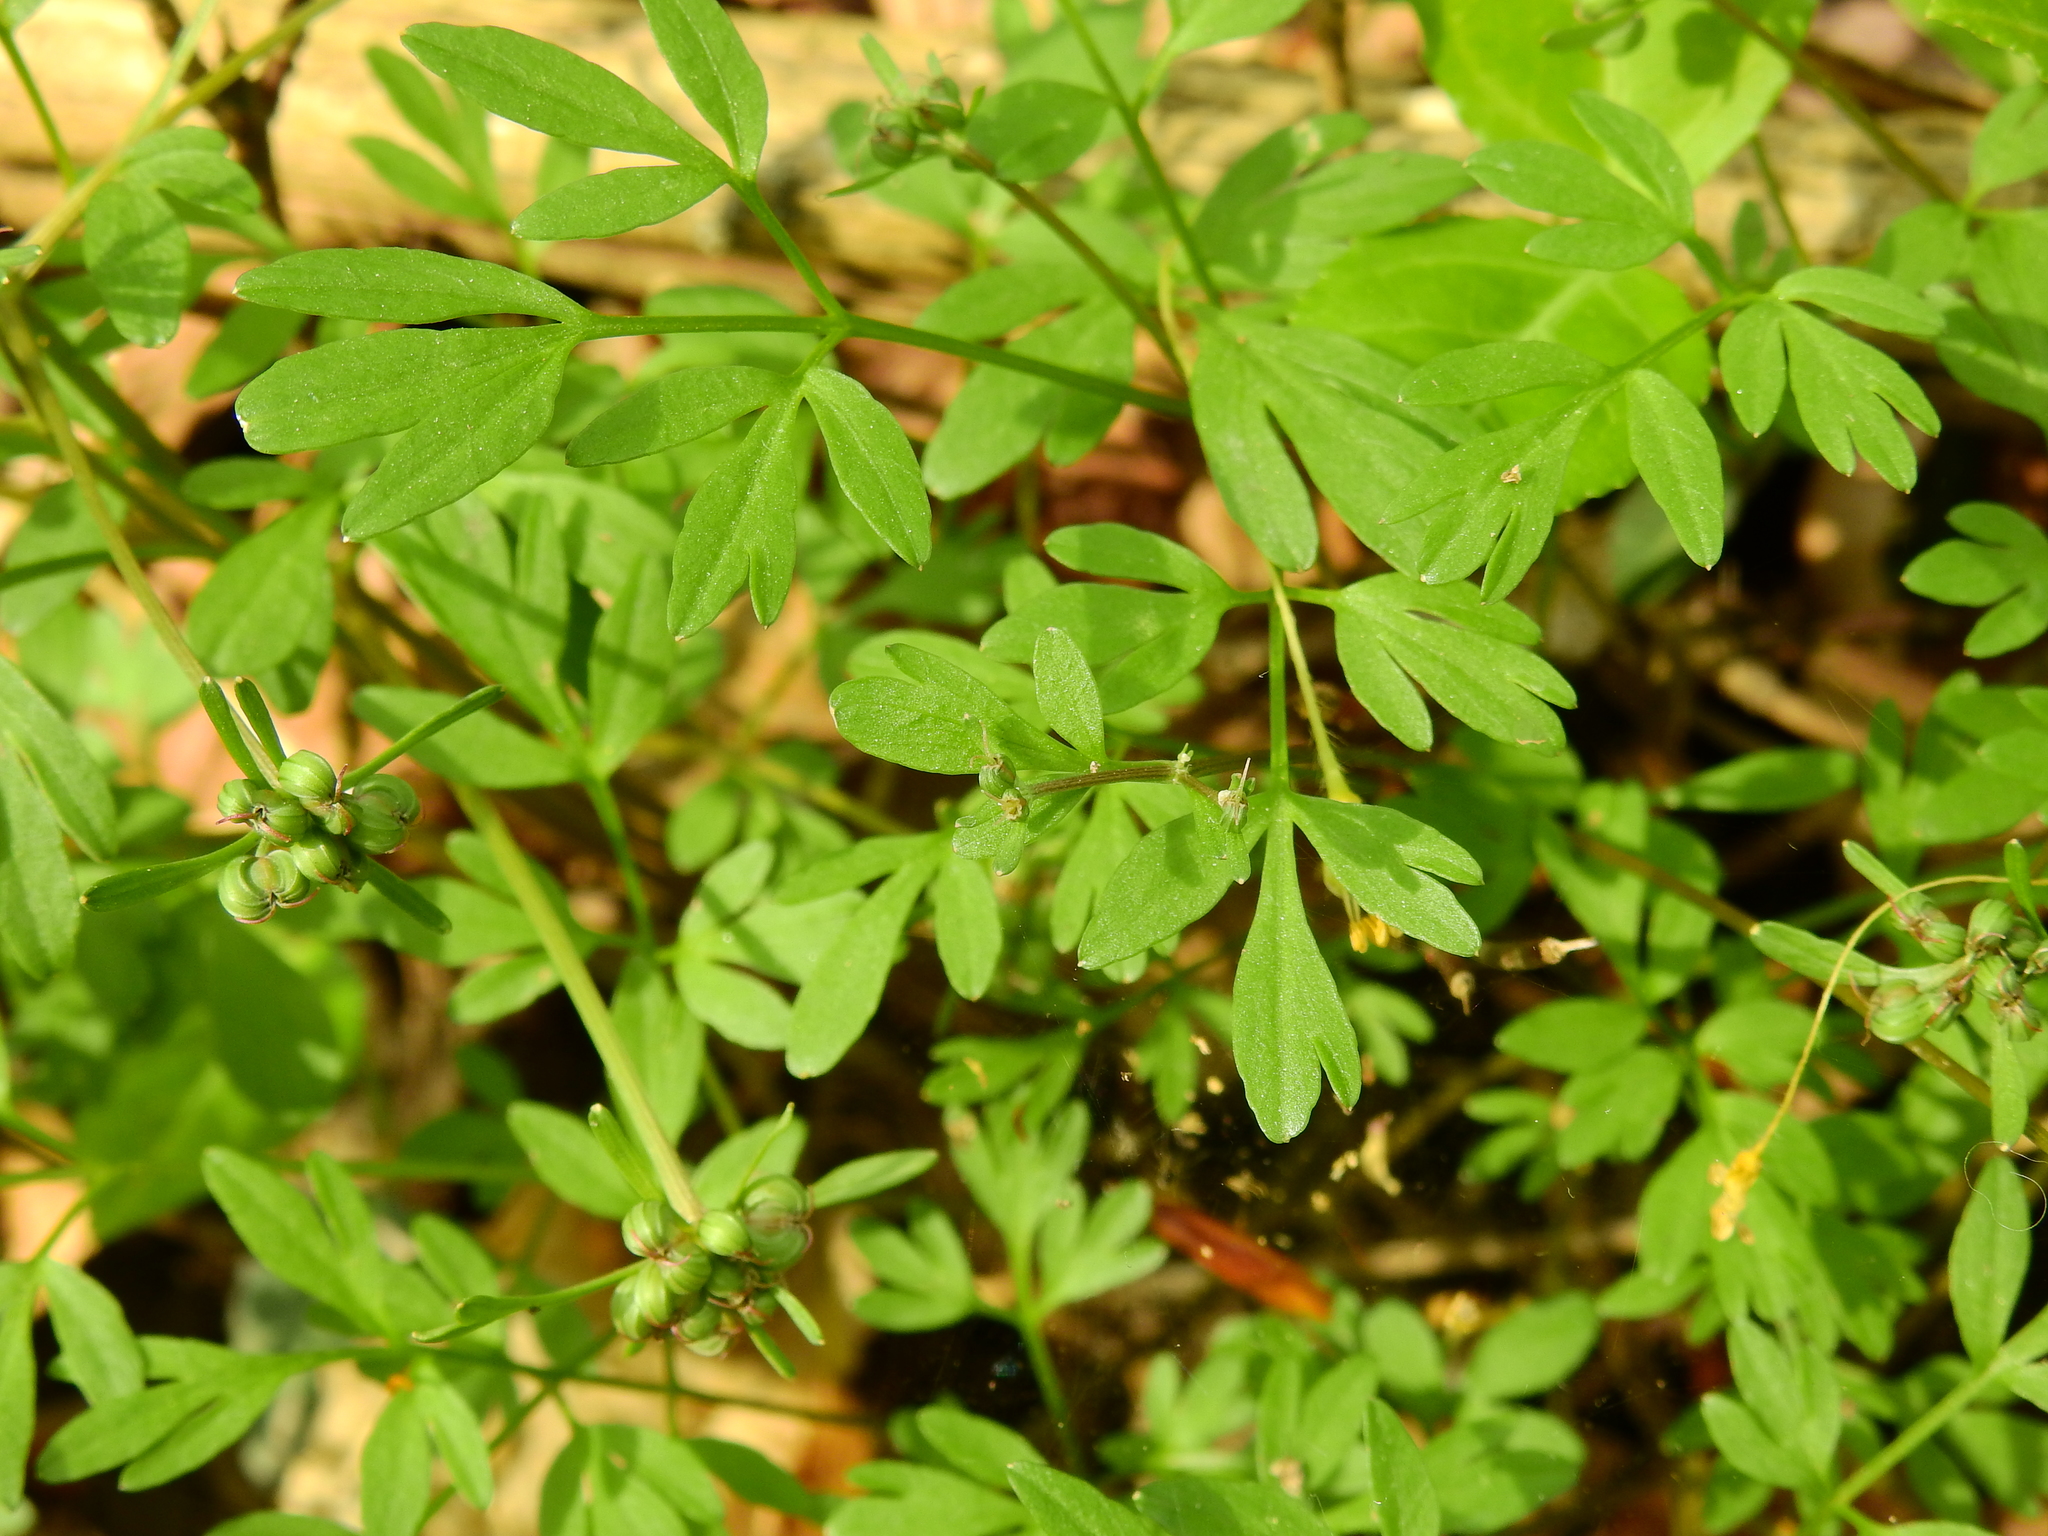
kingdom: Plantae
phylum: Tracheophyta
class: Magnoliopsida
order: Apiales
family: Apiaceae
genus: Erigenia
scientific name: Erigenia bulbosa
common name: Pepper-and-salt
